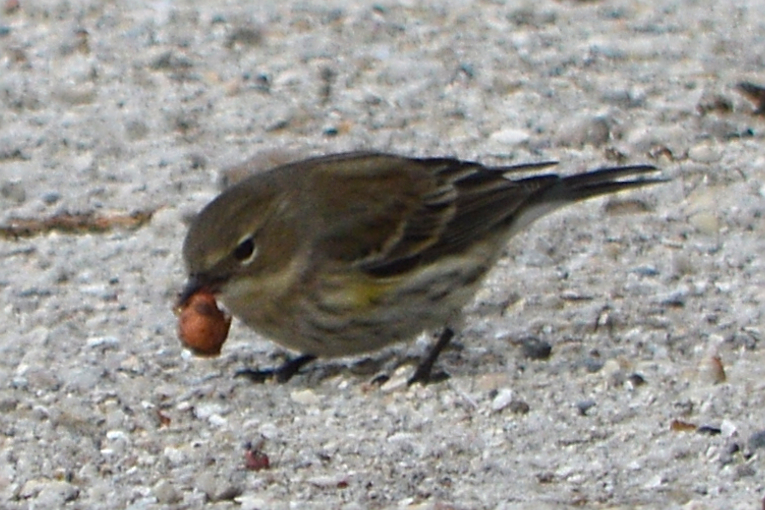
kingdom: Animalia
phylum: Chordata
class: Aves
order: Passeriformes
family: Parulidae
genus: Setophaga
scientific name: Setophaga coronata
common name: Myrtle warbler
